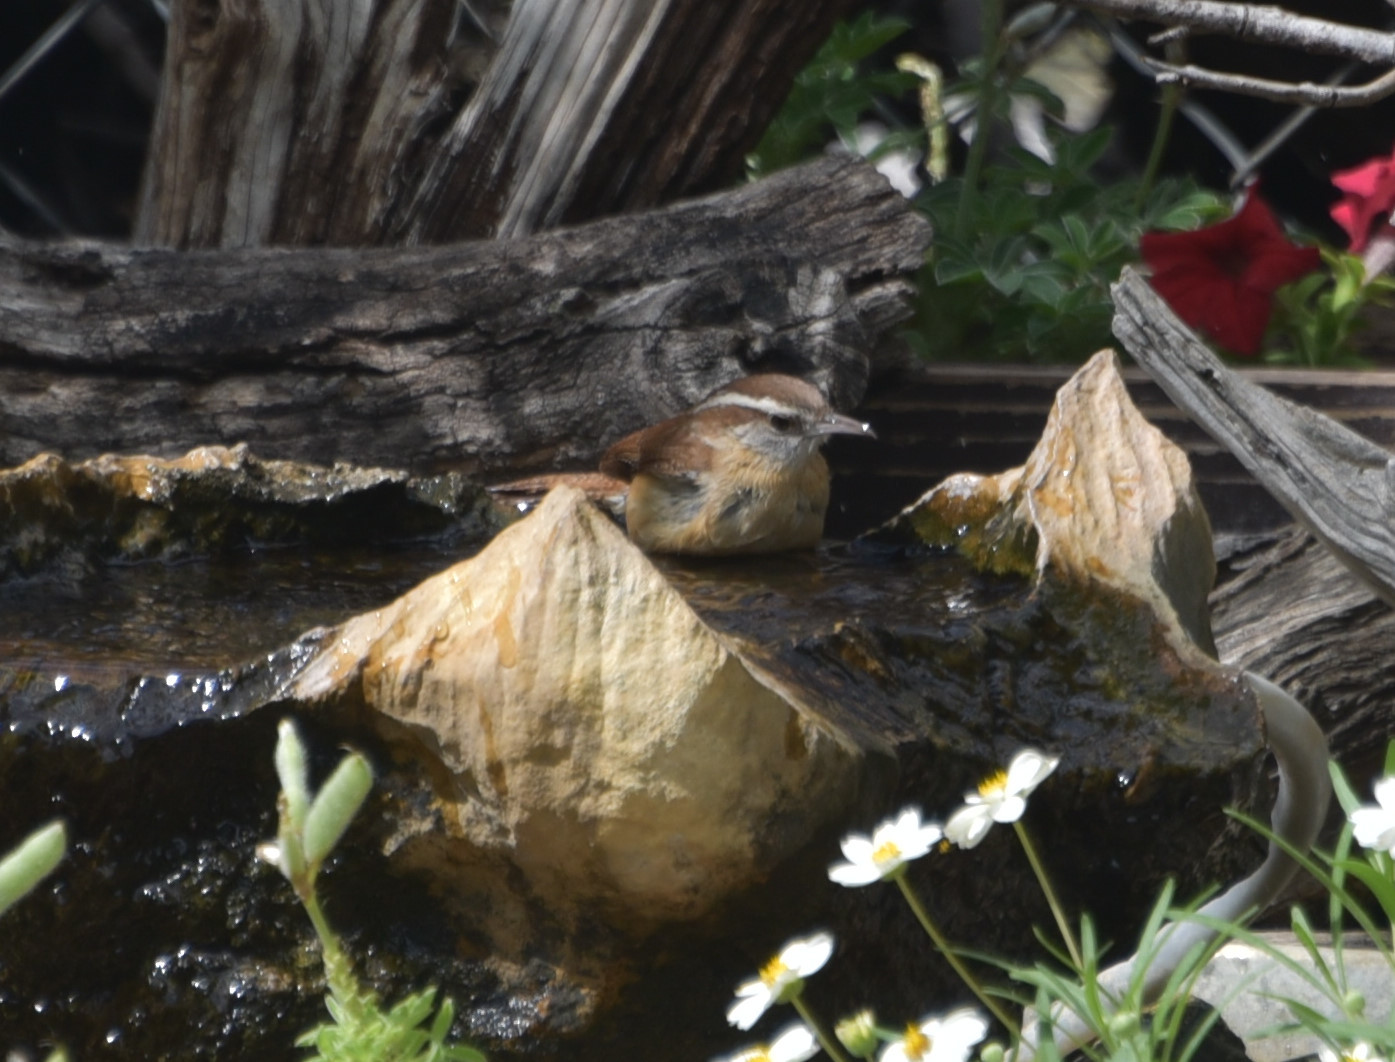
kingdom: Animalia
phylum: Chordata
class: Aves
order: Passeriformes
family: Troglodytidae
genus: Thryothorus
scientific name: Thryothorus ludovicianus
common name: Carolina wren
